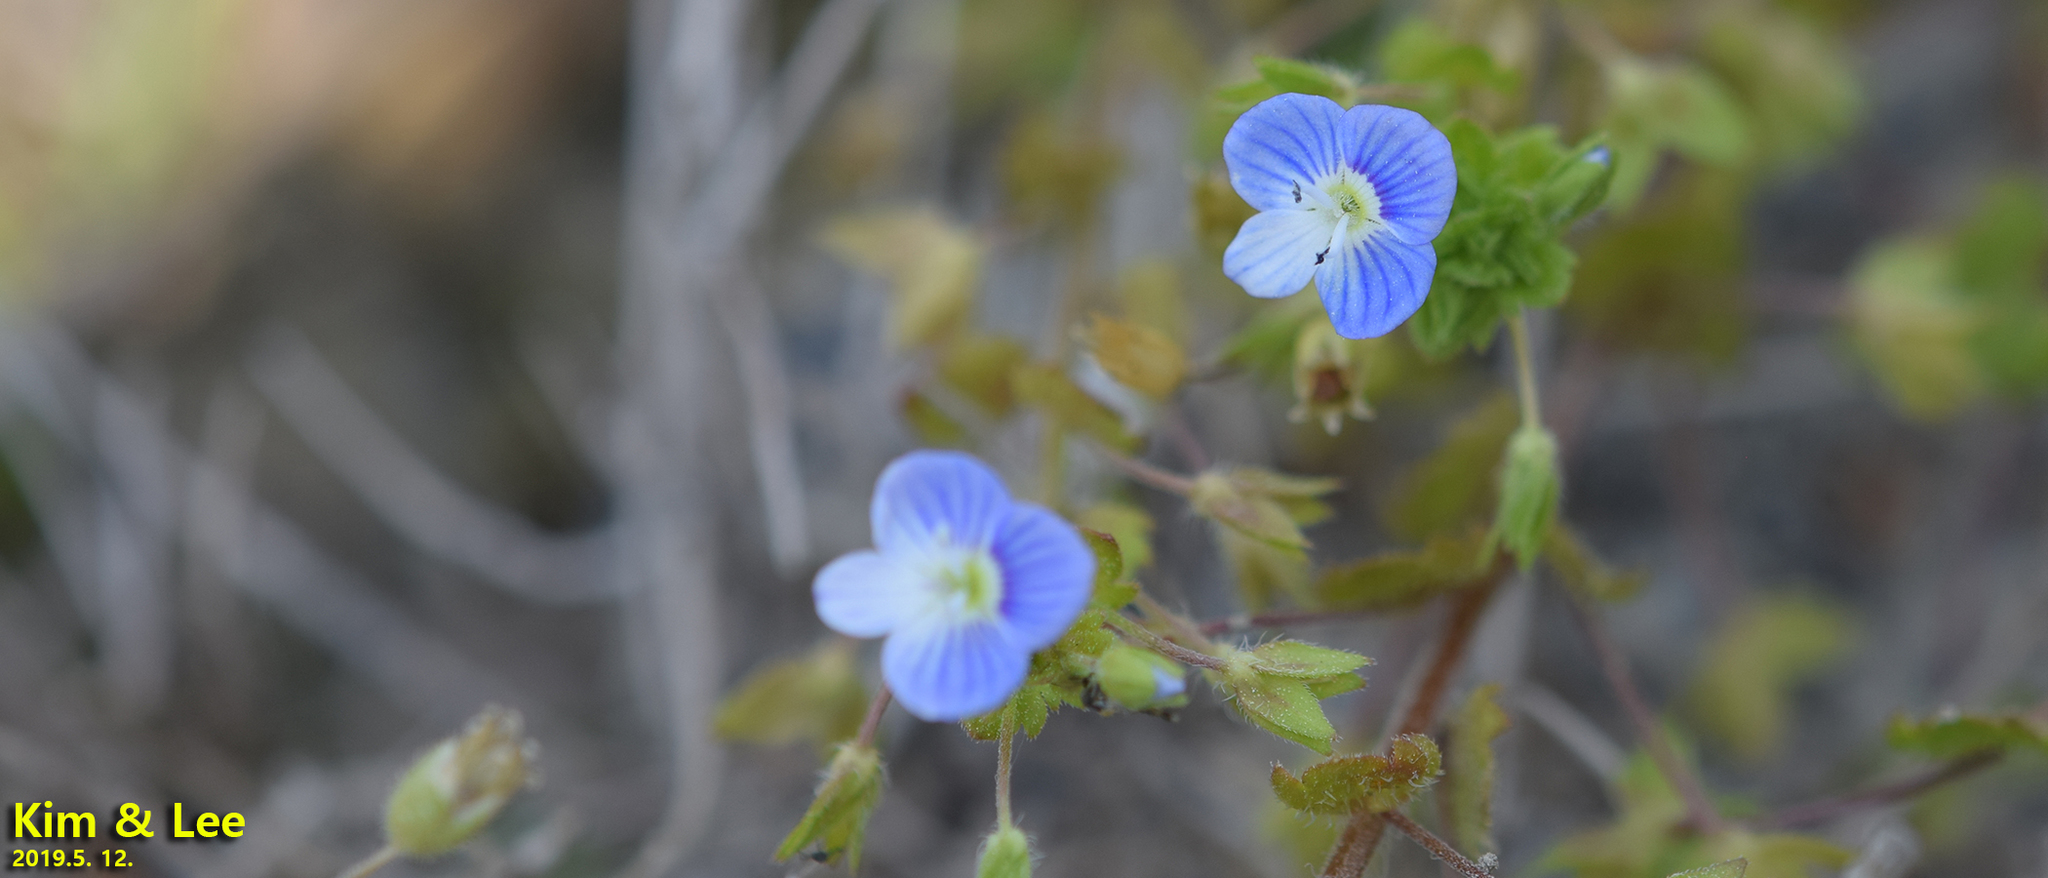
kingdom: Plantae
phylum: Tracheophyta
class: Magnoliopsida
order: Lamiales
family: Plantaginaceae
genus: Veronica
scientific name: Veronica persica
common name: Common field-speedwell
